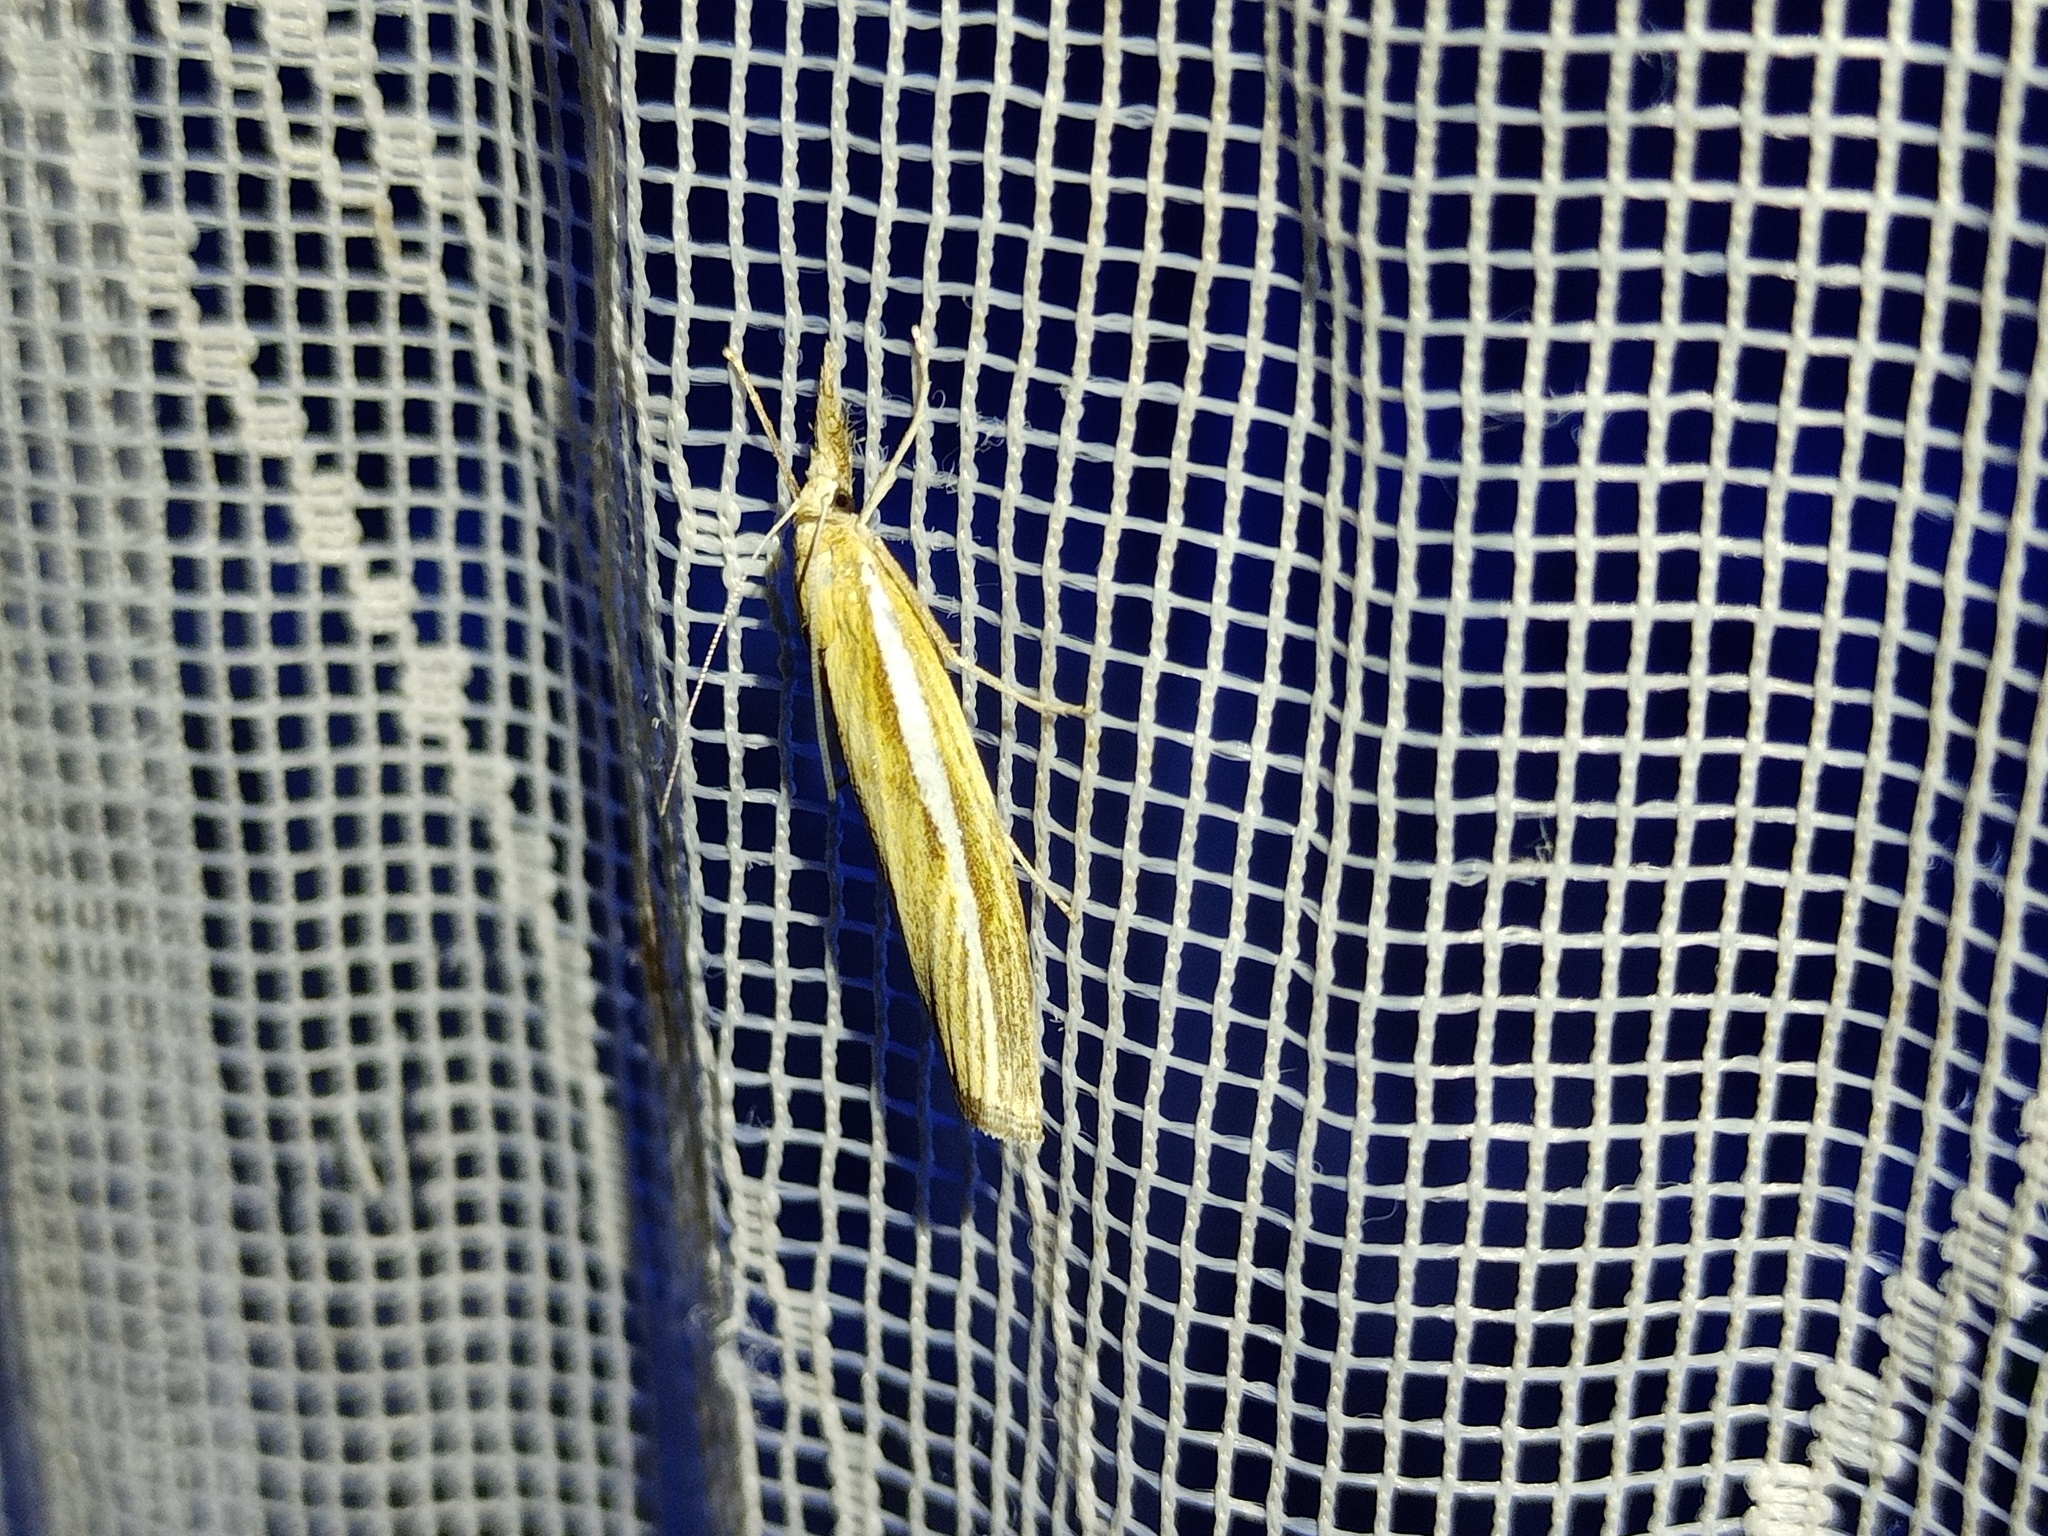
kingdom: Animalia
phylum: Arthropoda
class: Insecta
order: Lepidoptera
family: Crambidae
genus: Agriphila
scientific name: Agriphila tristellus
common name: Common grass-veneer
